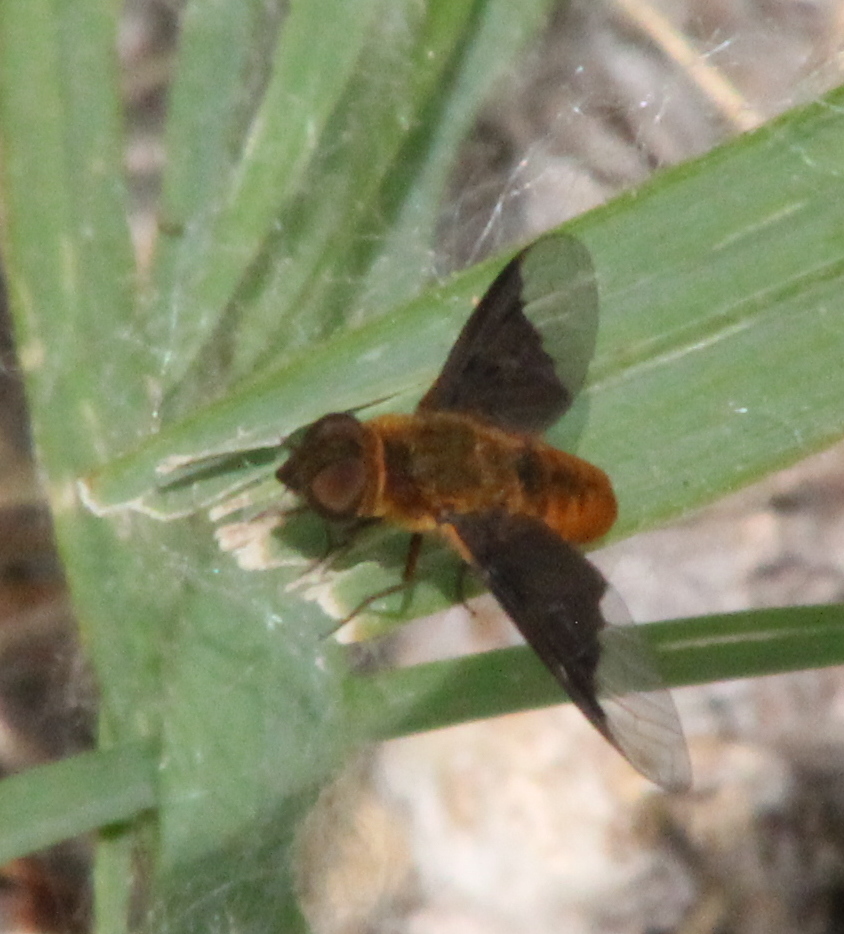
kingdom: Animalia
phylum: Arthropoda
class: Insecta
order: Diptera
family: Bombyliidae
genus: Chrysanthrax
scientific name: Chrysanthrax cypris
